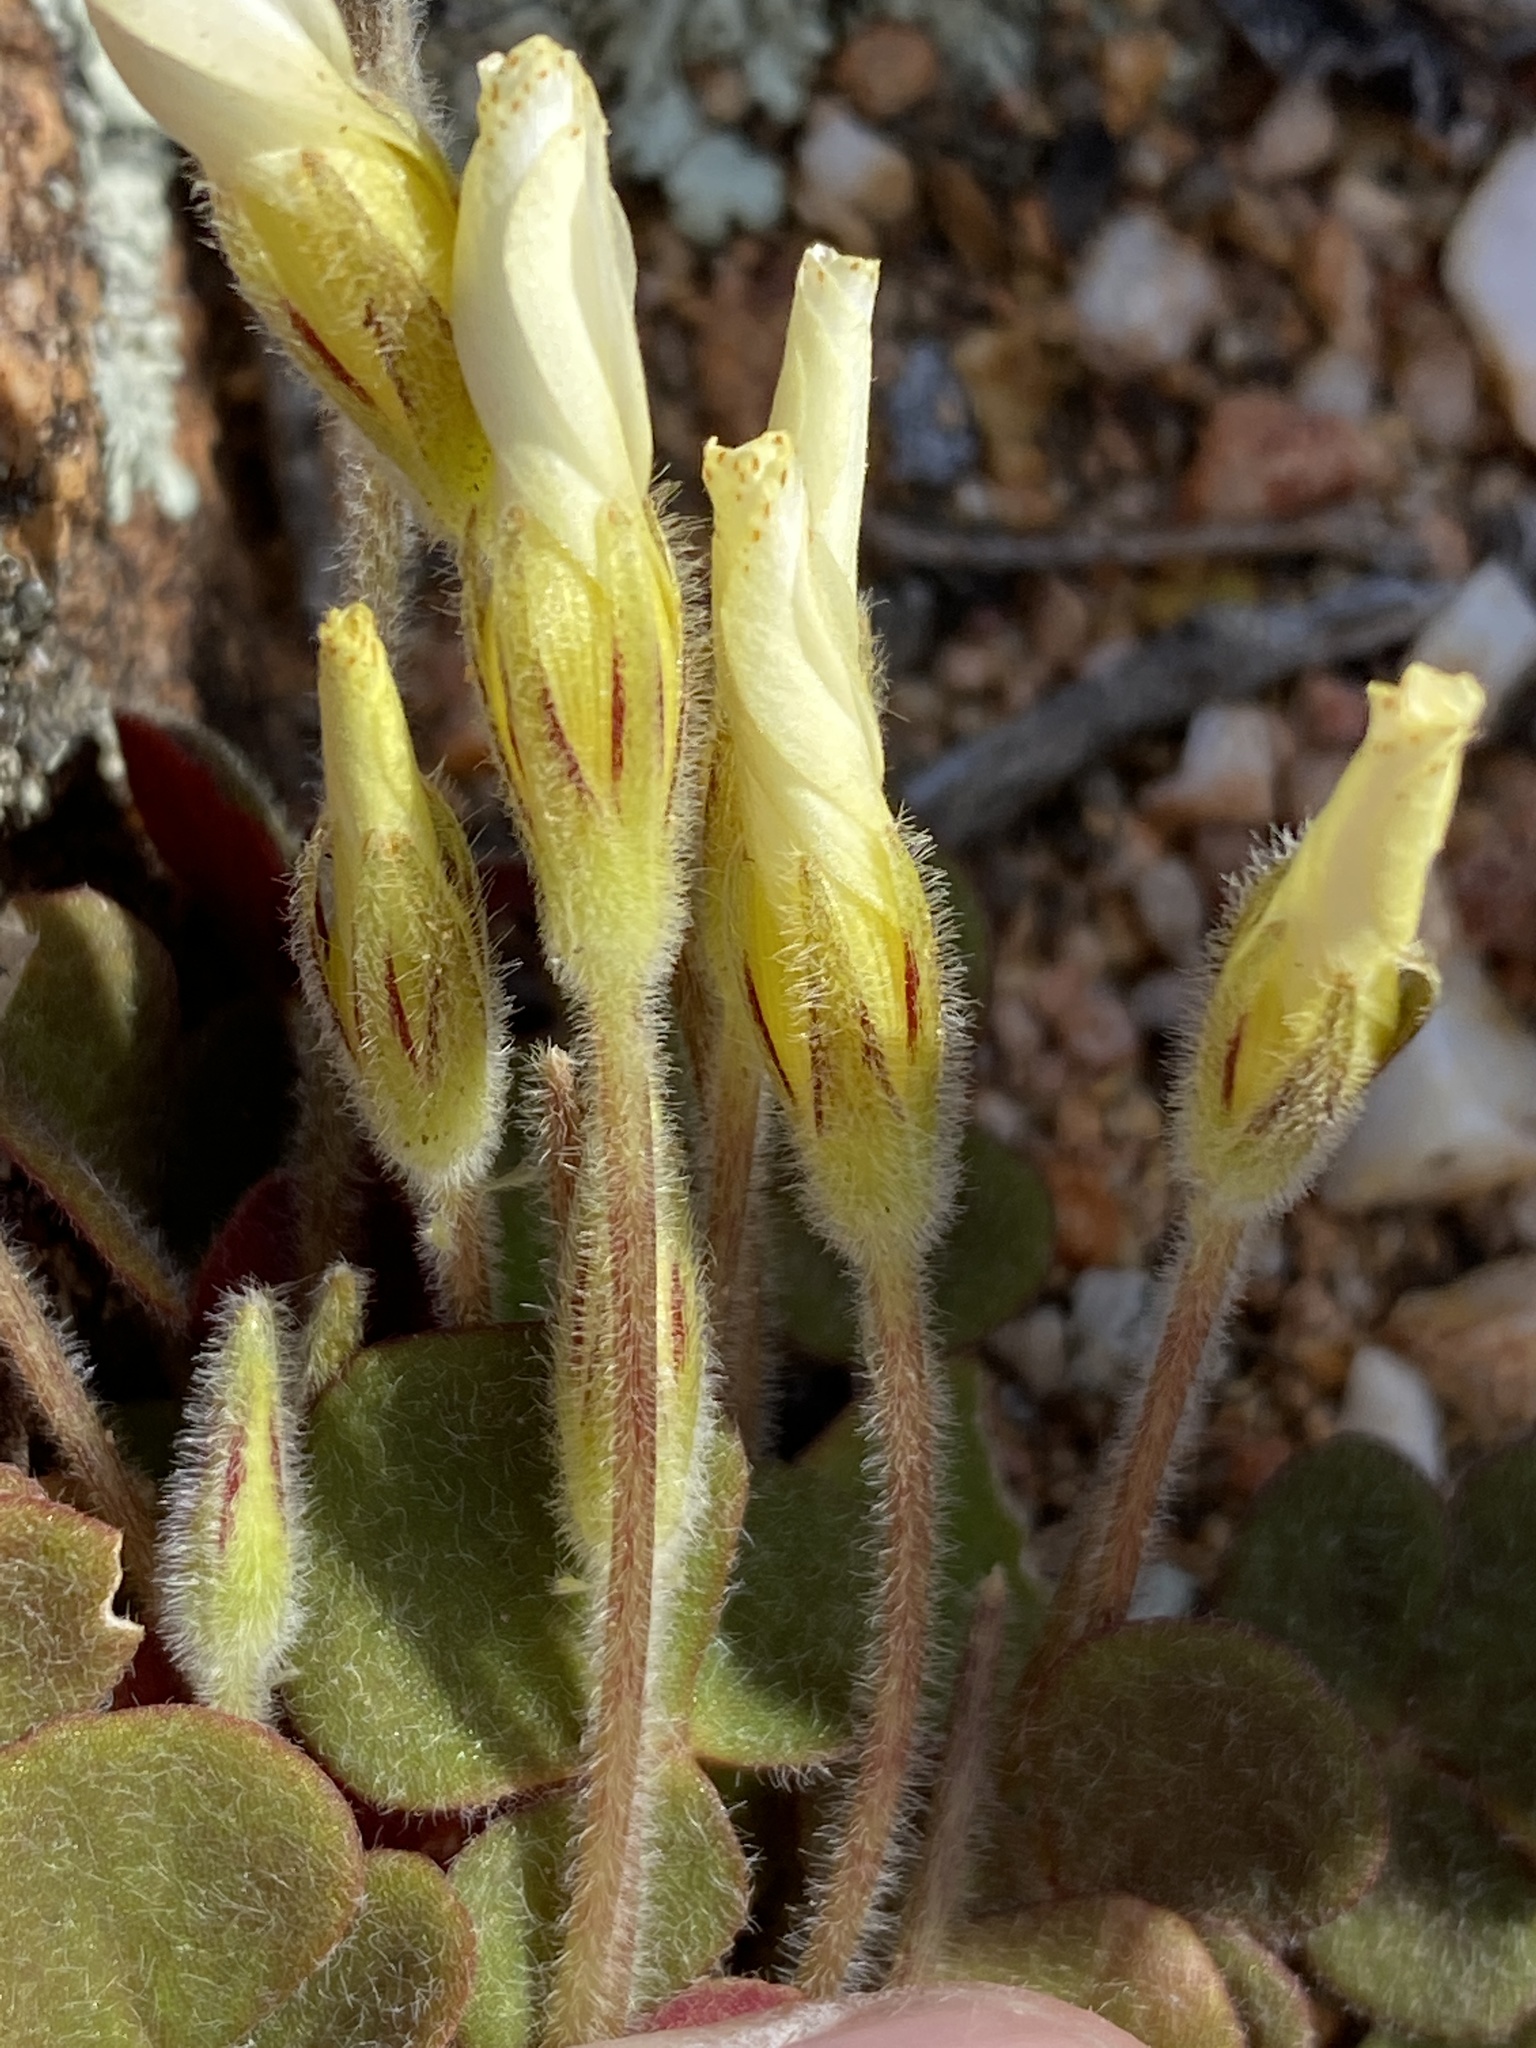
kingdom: Plantae
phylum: Tracheophyta
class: Magnoliopsida
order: Oxalidales
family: Oxalidaceae
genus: Oxalis
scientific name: Oxalis algoensis
